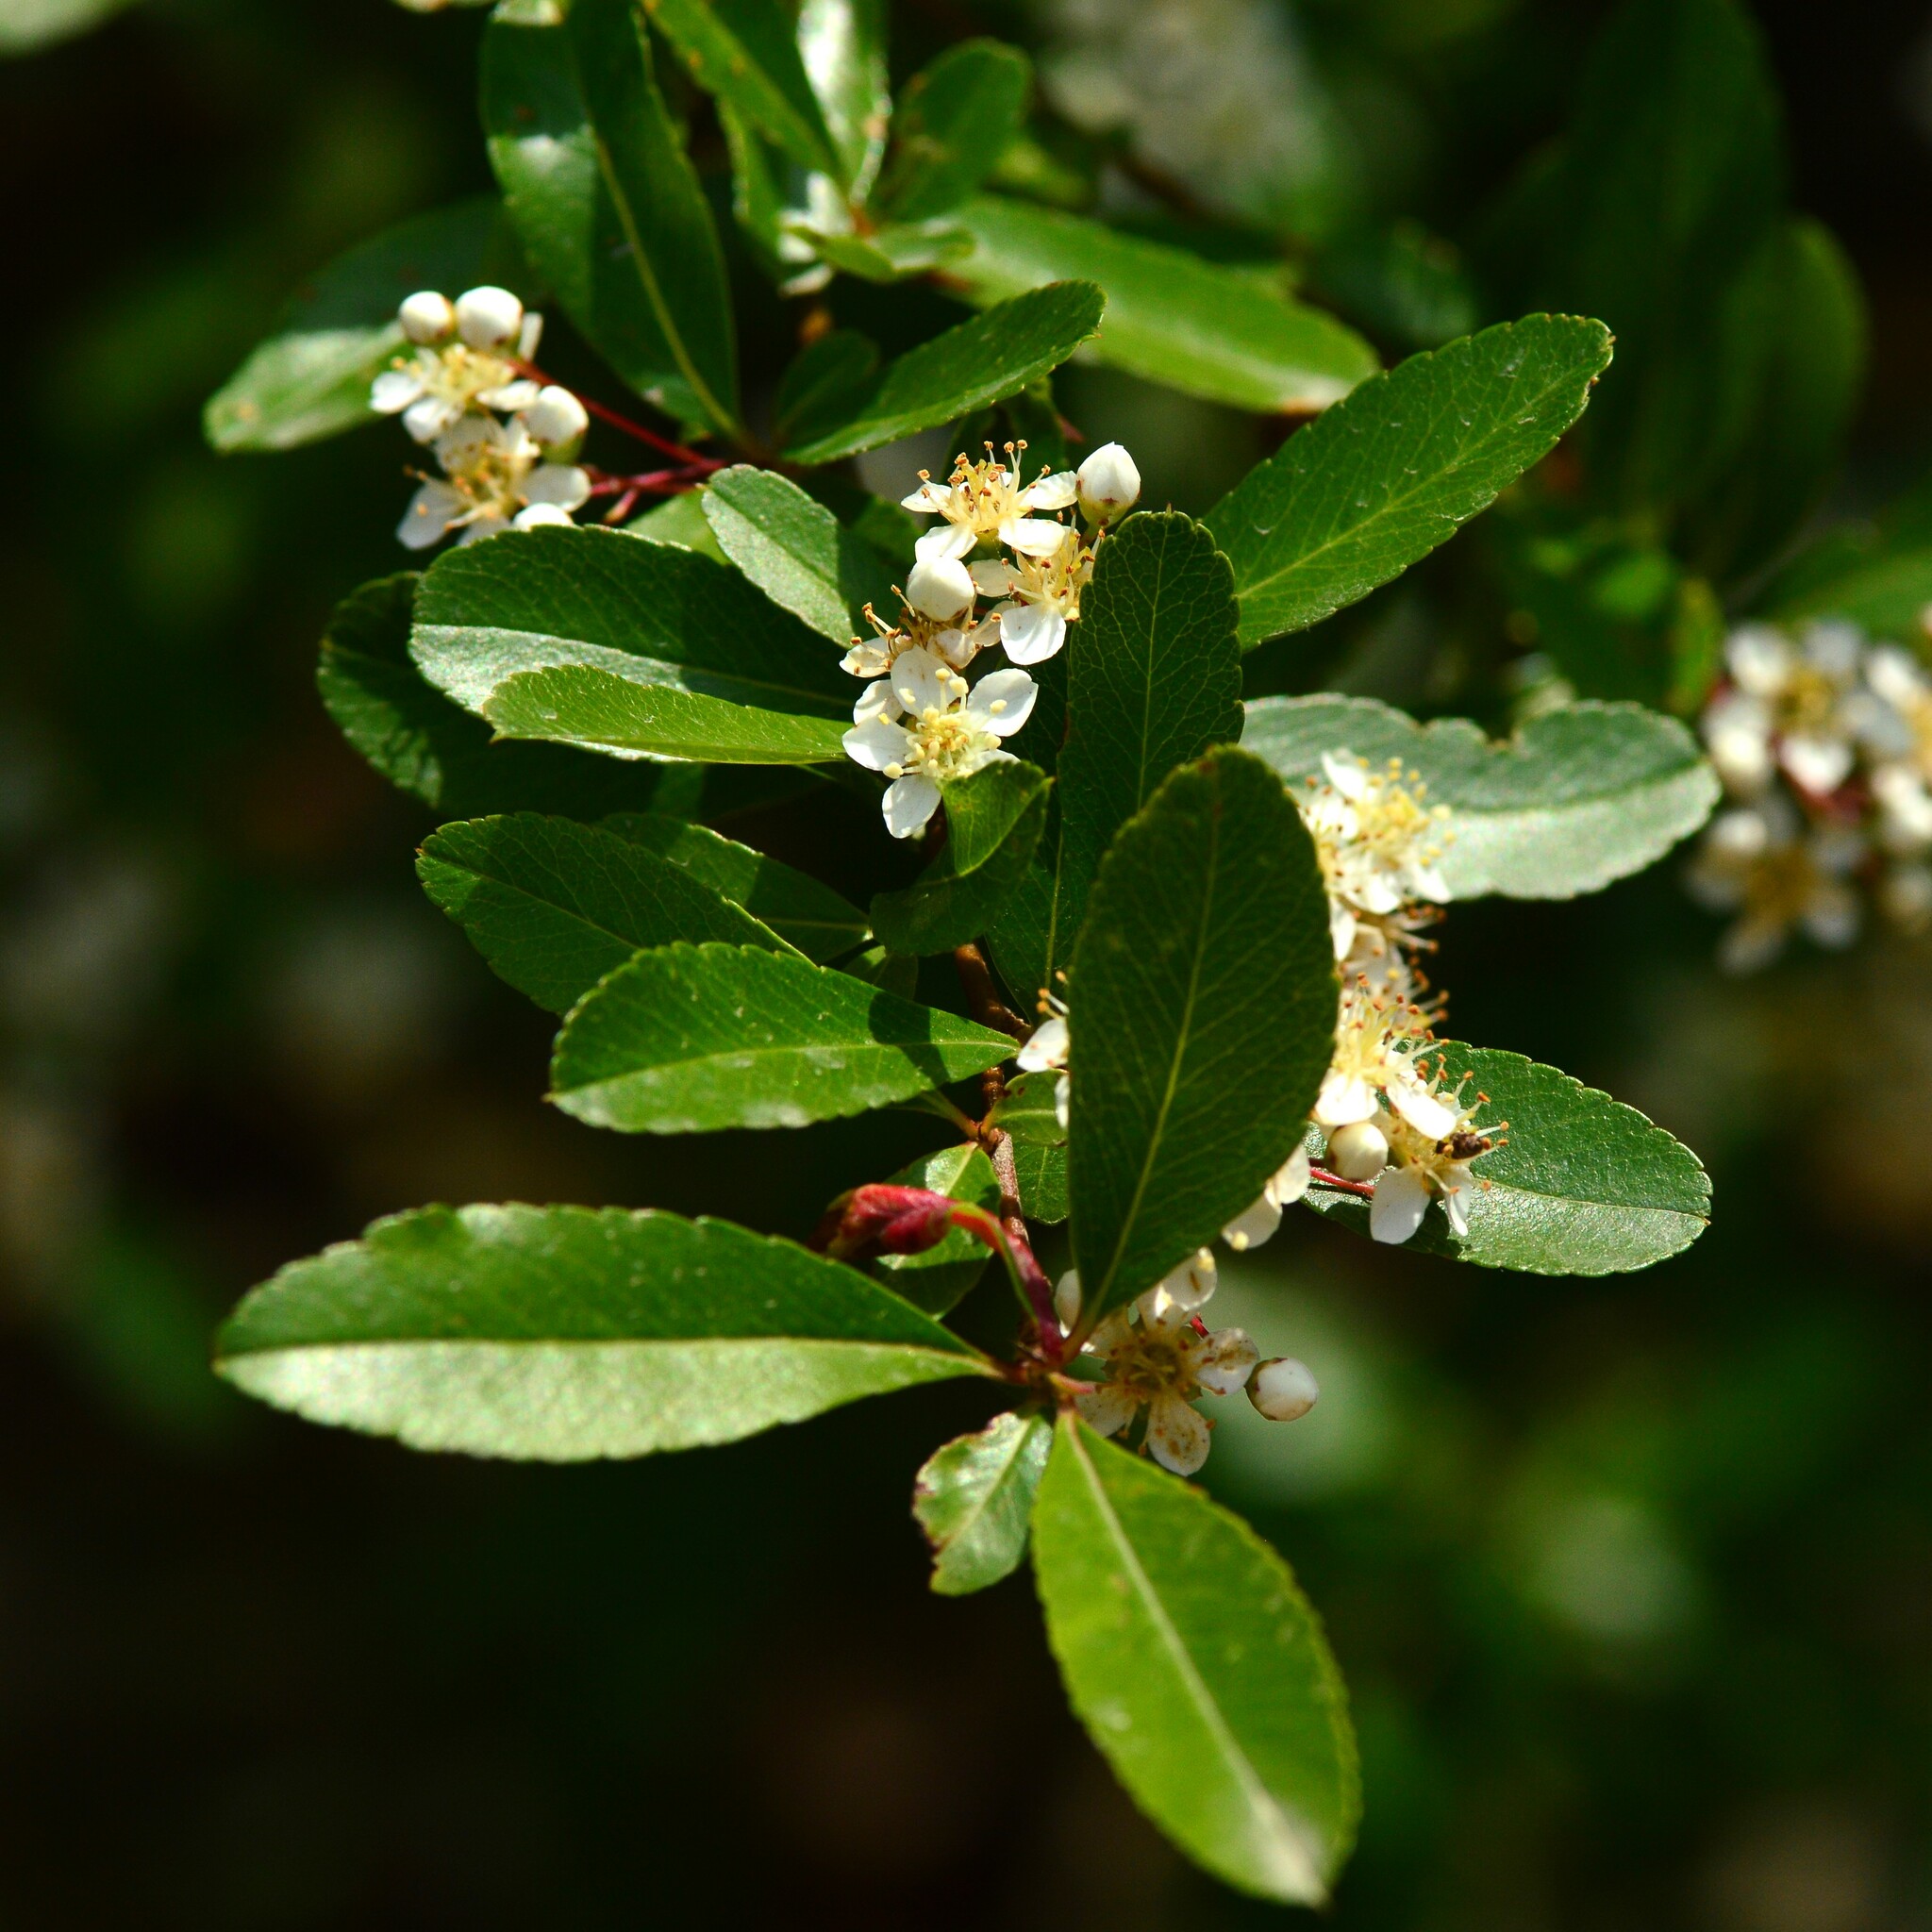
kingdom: Plantae
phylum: Tracheophyta
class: Magnoliopsida
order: Rosales
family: Rosaceae
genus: Pyracantha
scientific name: Pyracantha crenulata
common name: Nepalese firethorn
